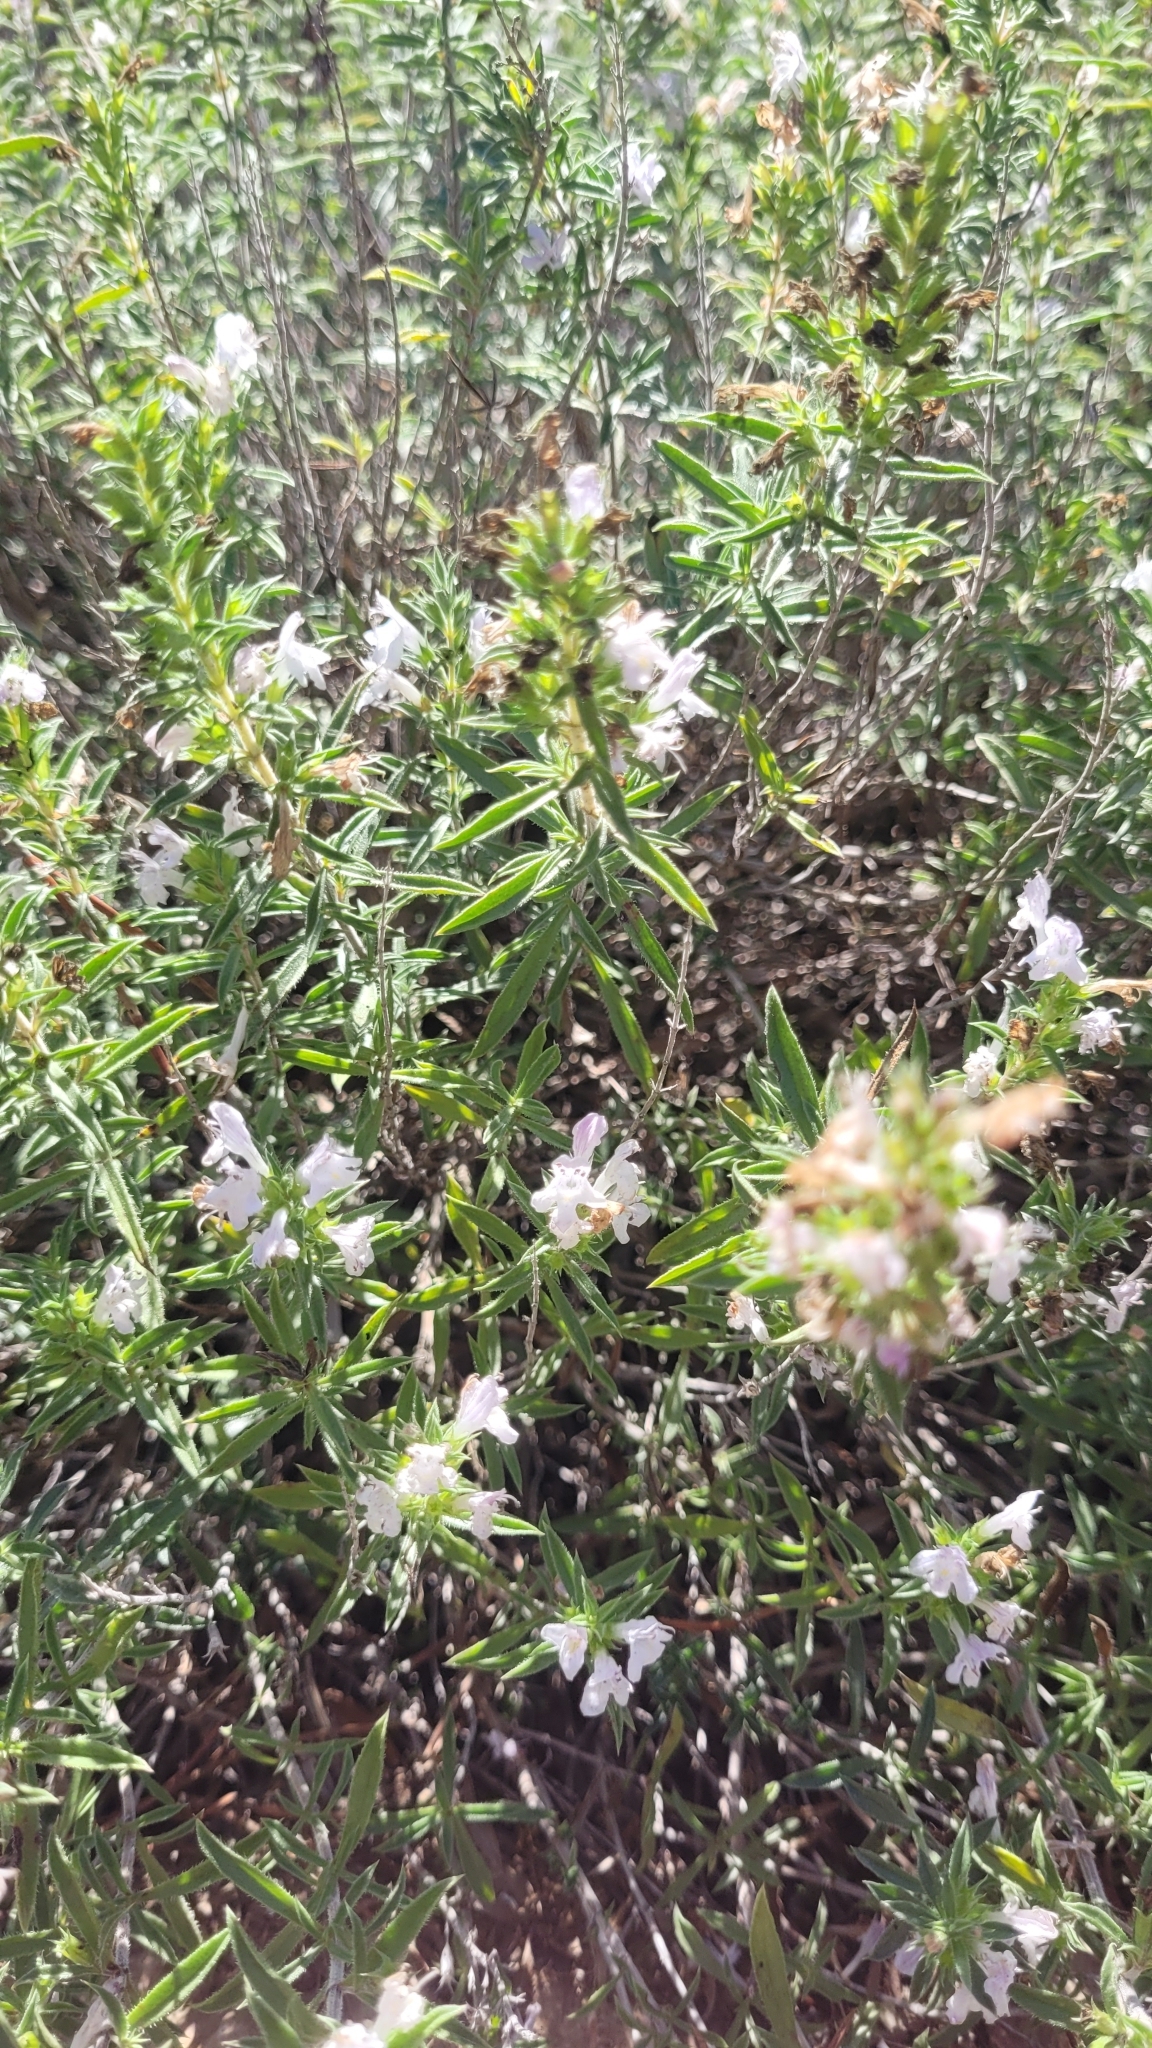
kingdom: Plantae
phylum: Tracheophyta
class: Magnoliopsida
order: Lamiales
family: Lamiaceae
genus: Satureja
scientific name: Satureja montana
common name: Winter savory
